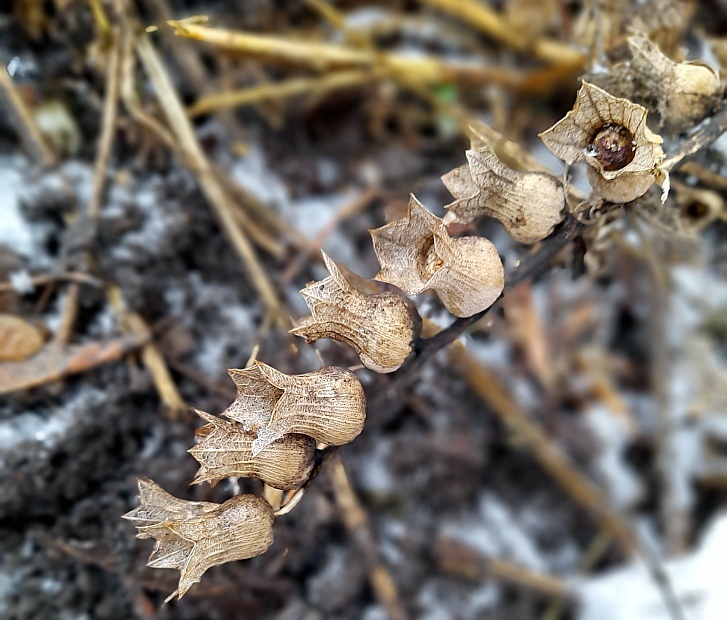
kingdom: Plantae
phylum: Tracheophyta
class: Magnoliopsida
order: Solanales
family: Solanaceae
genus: Hyoscyamus
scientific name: Hyoscyamus niger
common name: Henbane
